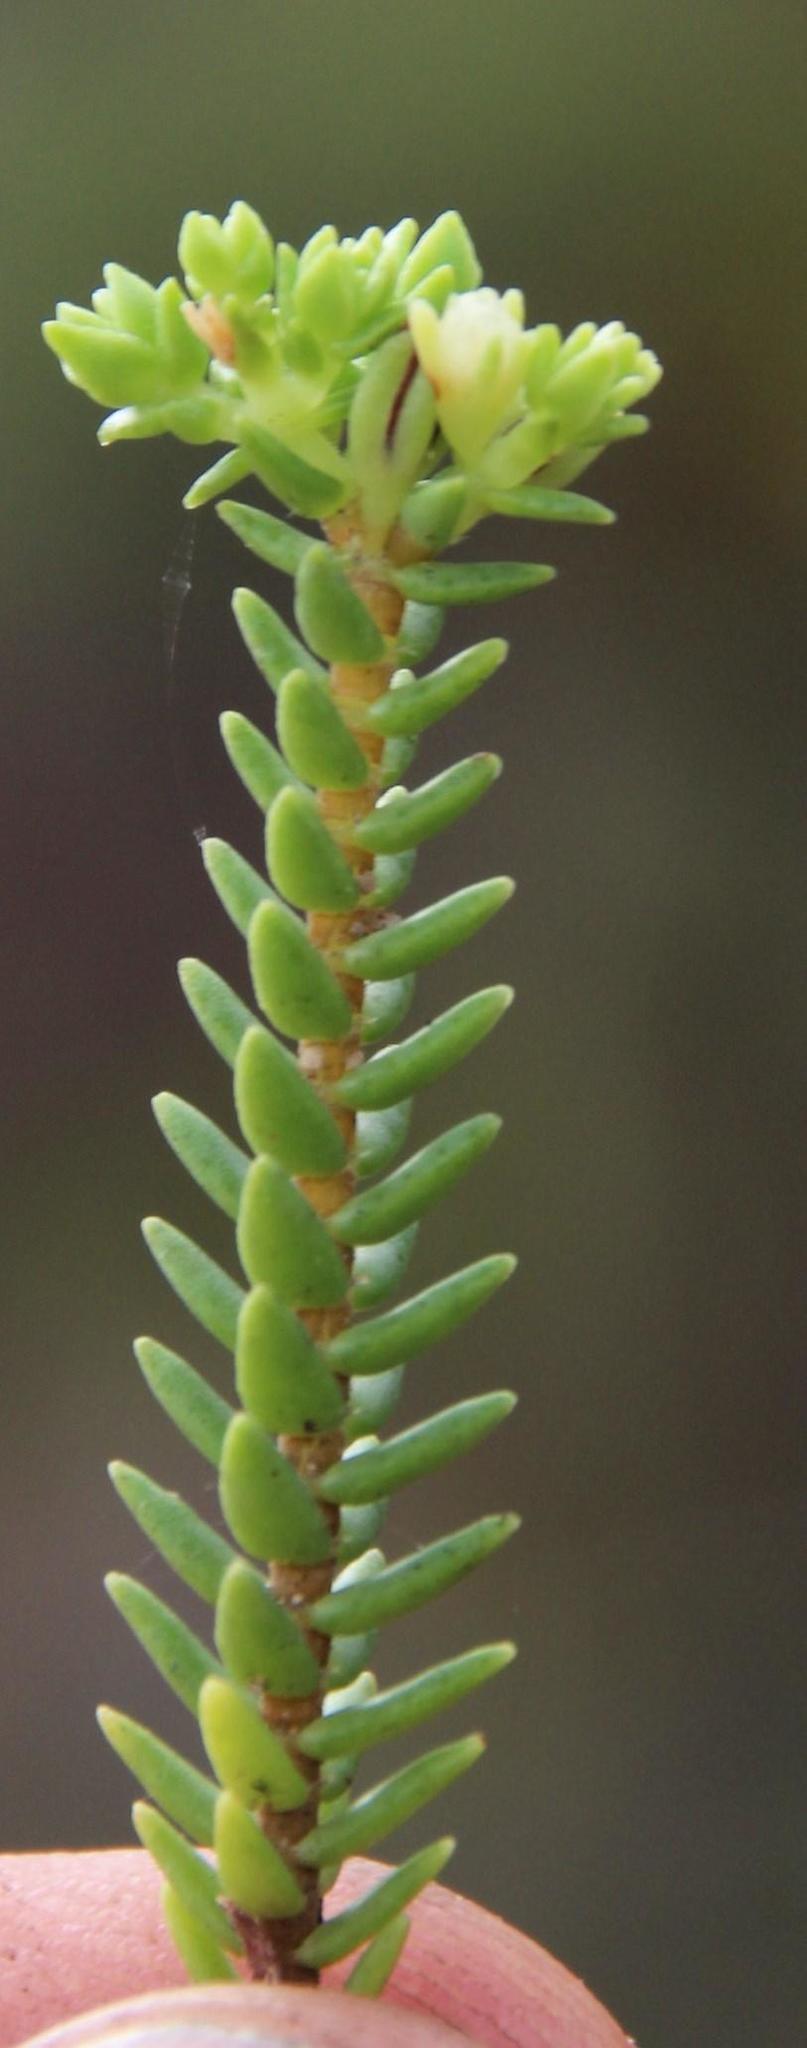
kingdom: Plantae
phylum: Tracheophyta
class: Magnoliopsida
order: Saxifragales
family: Crassulaceae
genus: Crassula
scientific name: Crassula ericoides
